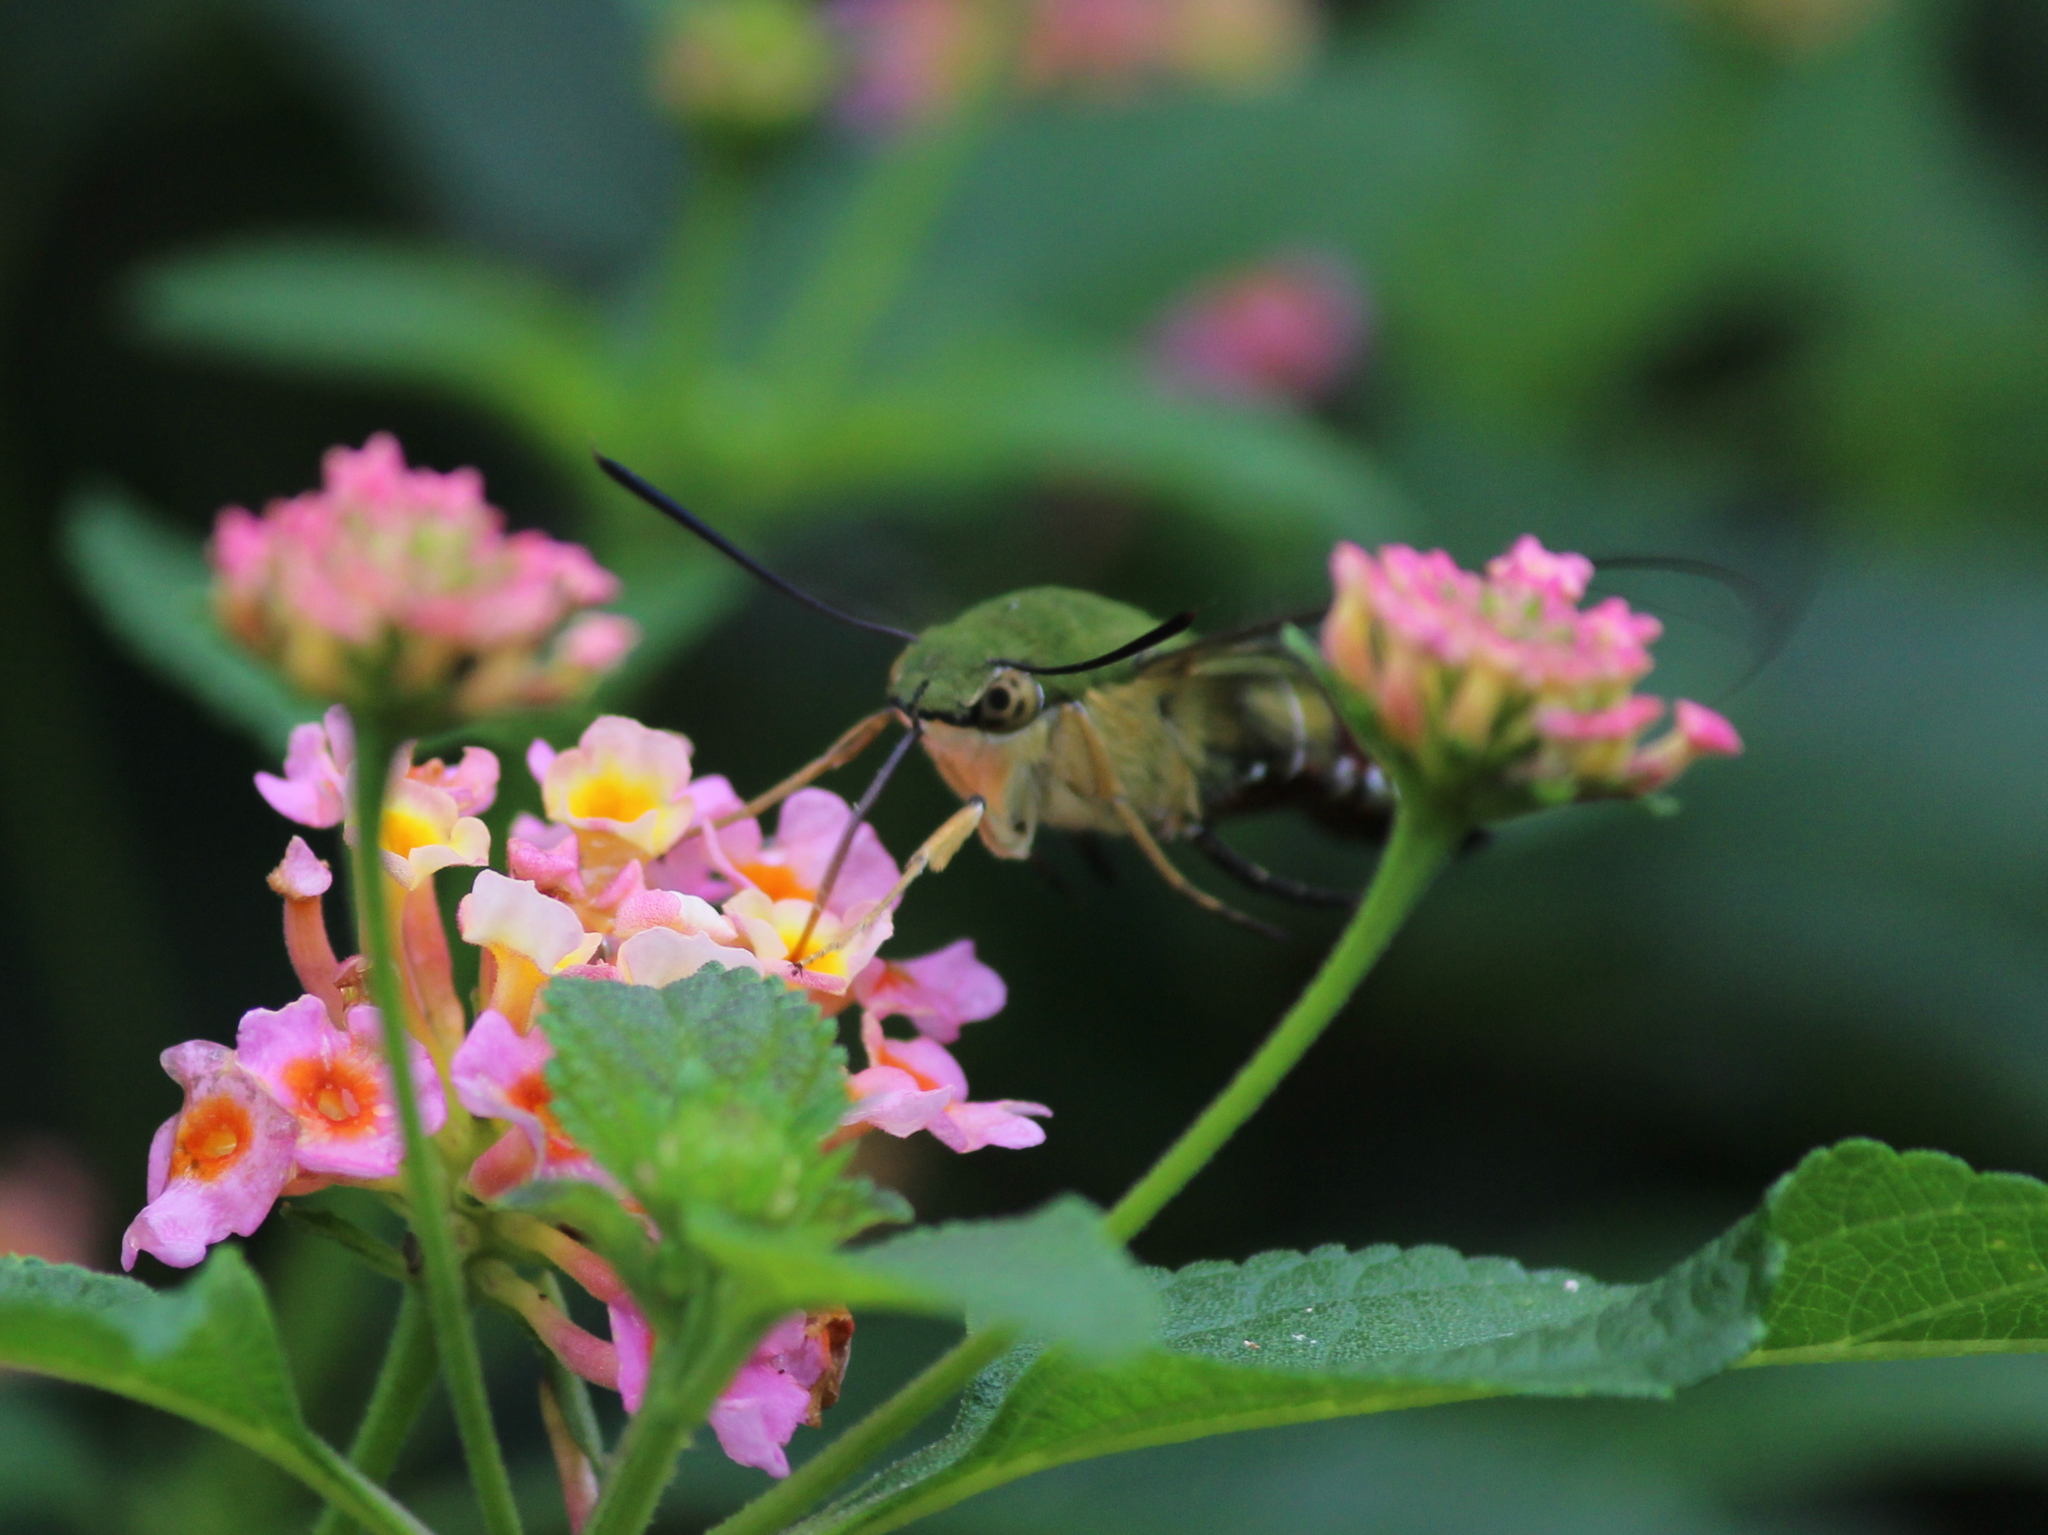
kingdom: Animalia
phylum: Arthropoda
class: Insecta
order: Lepidoptera
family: Sphingidae
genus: Cephonodes
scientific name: Cephonodes hylas
